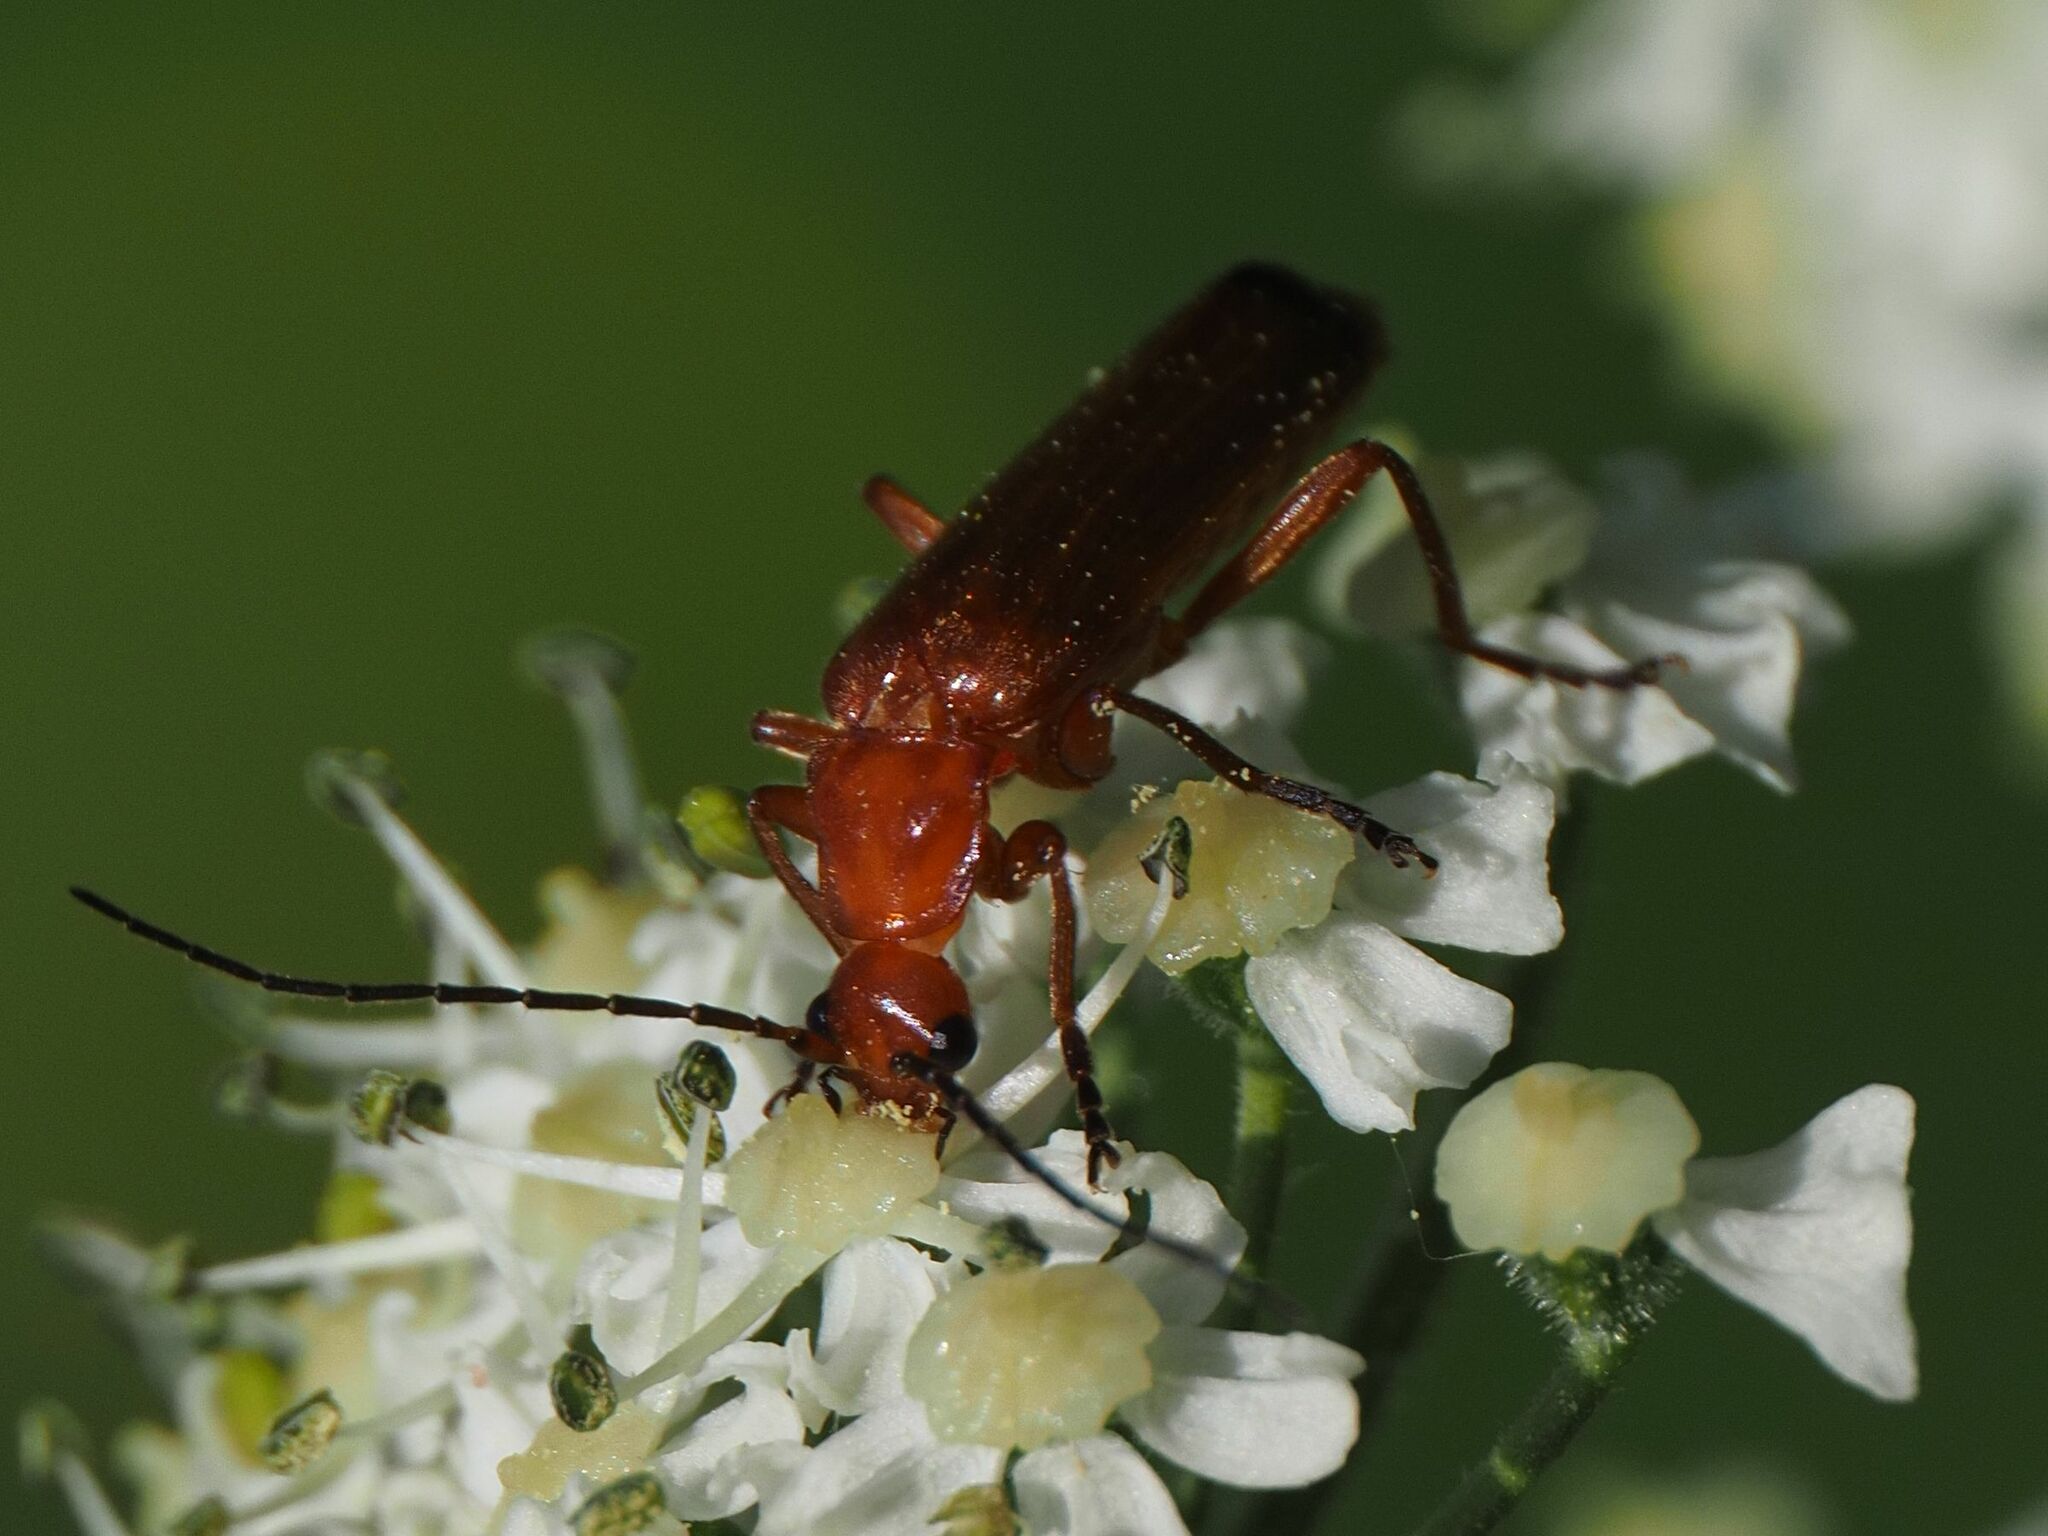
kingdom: Animalia
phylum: Arthropoda
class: Insecta
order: Coleoptera
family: Cantharidae
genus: Rhagonycha
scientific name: Rhagonycha fulva
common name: Common red soldier beetle
